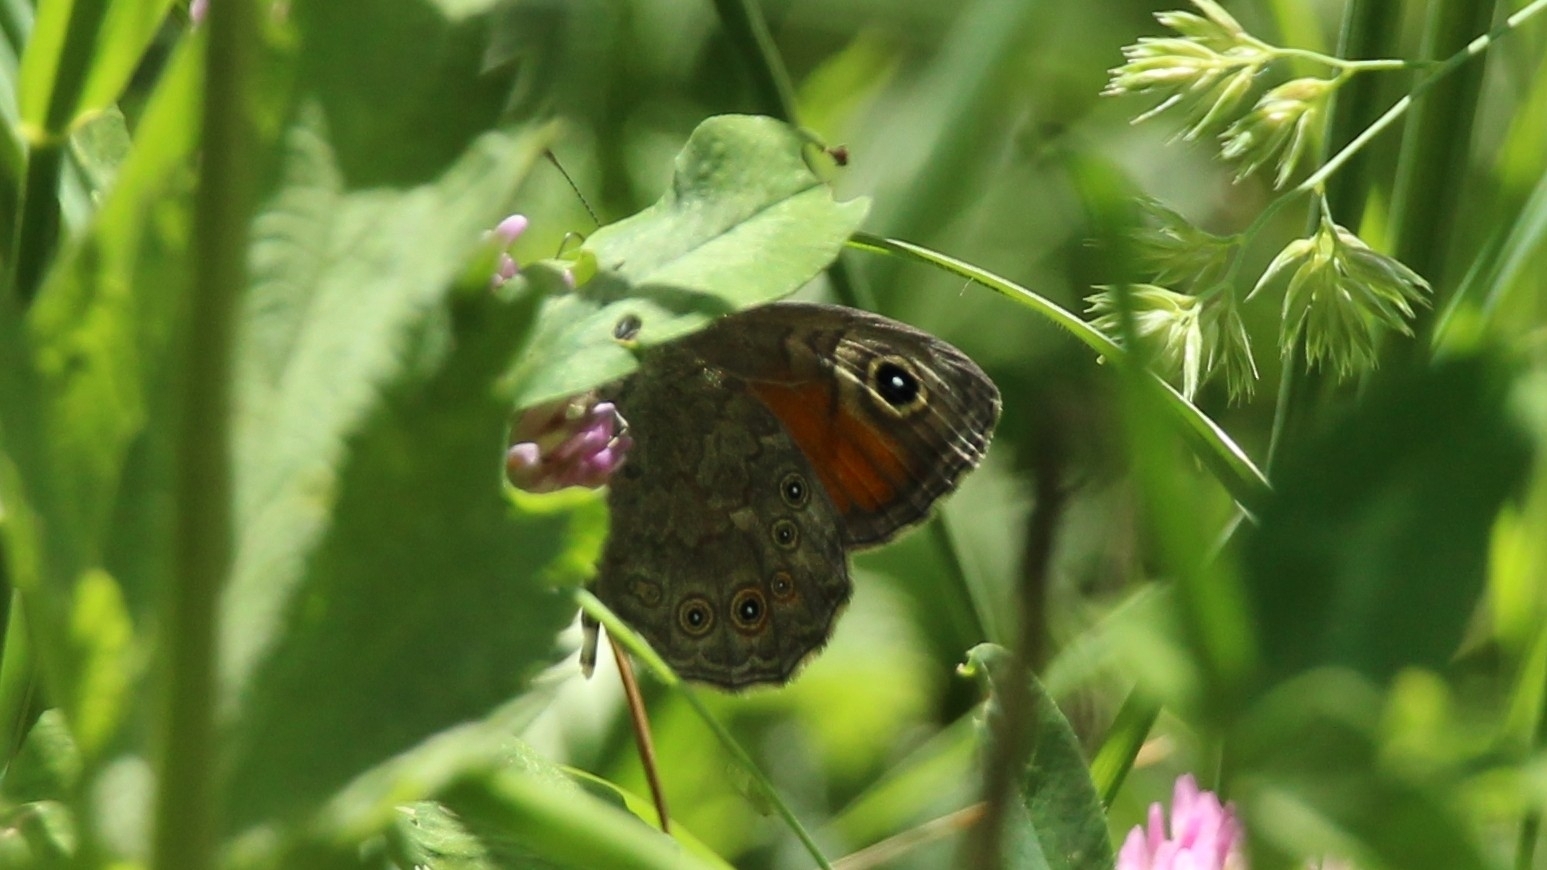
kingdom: Animalia
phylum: Arthropoda
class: Insecta
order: Lepidoptera
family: Nymphalidae
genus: Pararge
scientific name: Pararge Lasiommata maera
